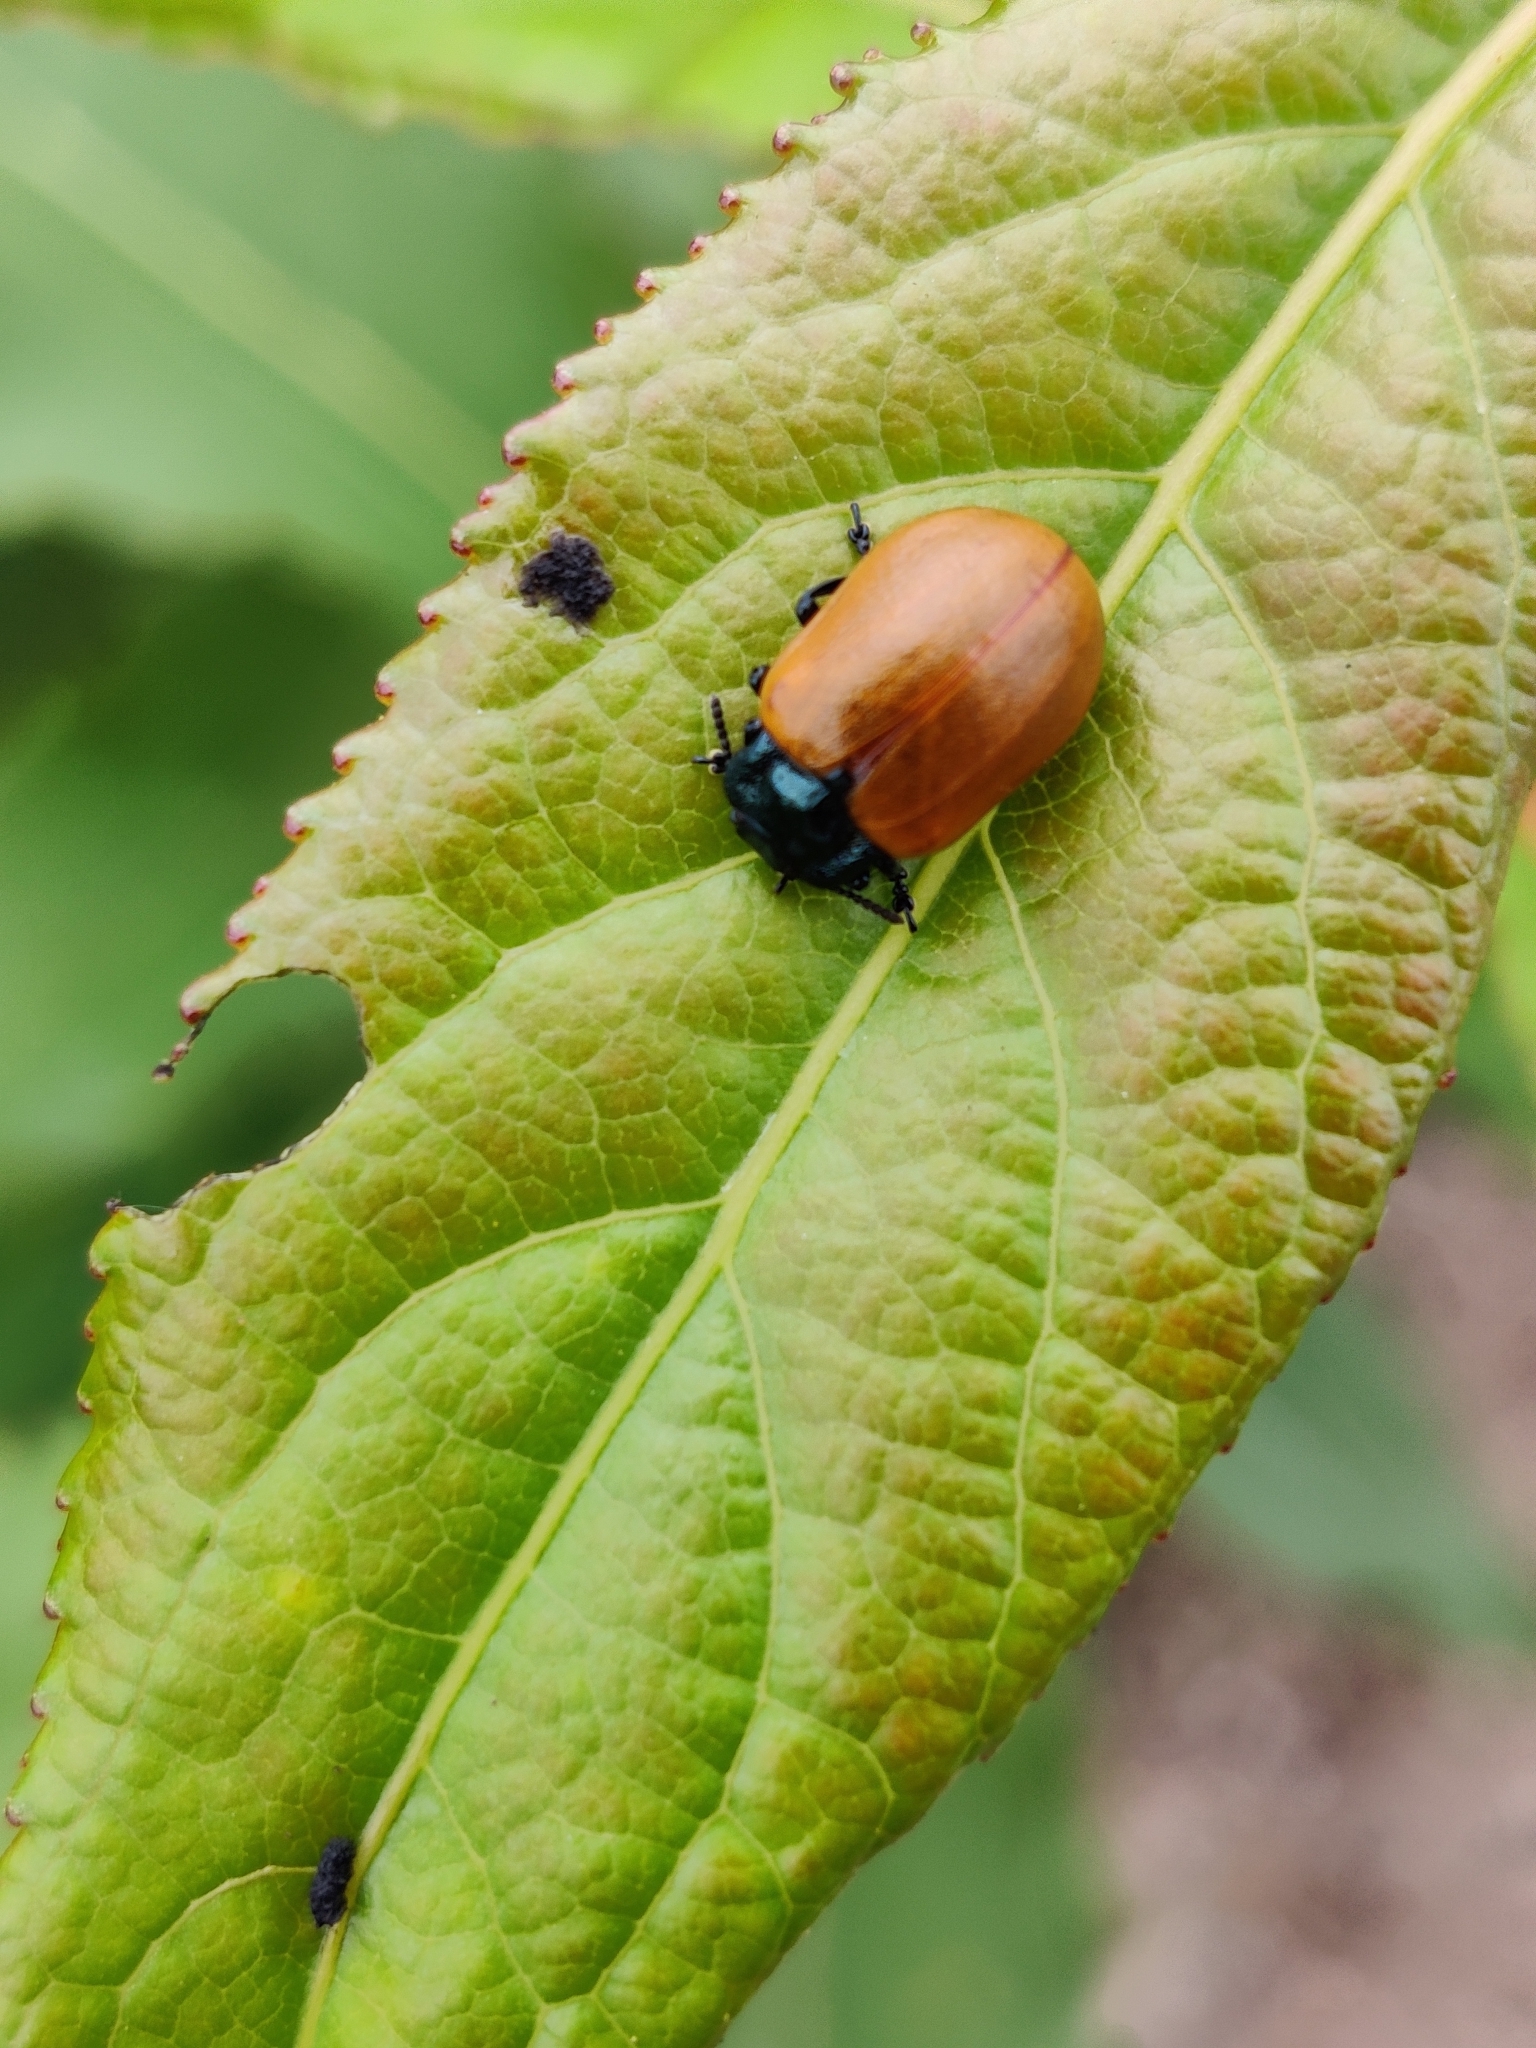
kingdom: Animalia
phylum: Arthropoda
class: Insecta
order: Coleoptera
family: Chrysomelidae
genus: Chrysomela
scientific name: Chrysomela populi
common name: Red poplar leaf beetle
